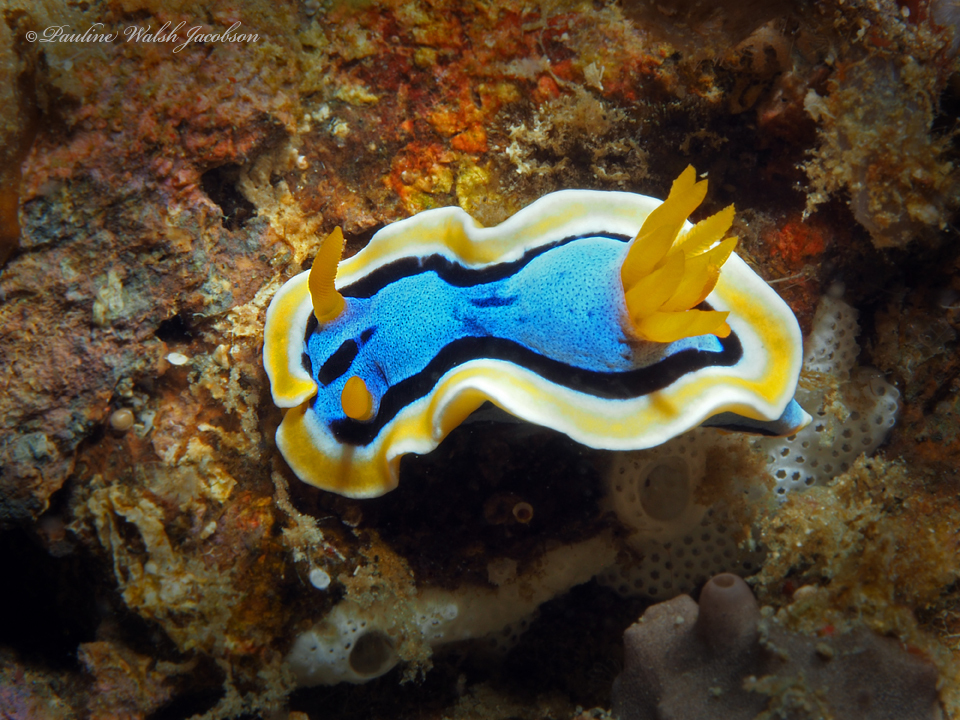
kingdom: Animalia
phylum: Mollusca
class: Gastropoda
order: Nudibranchia
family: Chromodorididae
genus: Chromodoris
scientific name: Chromodoris annae
